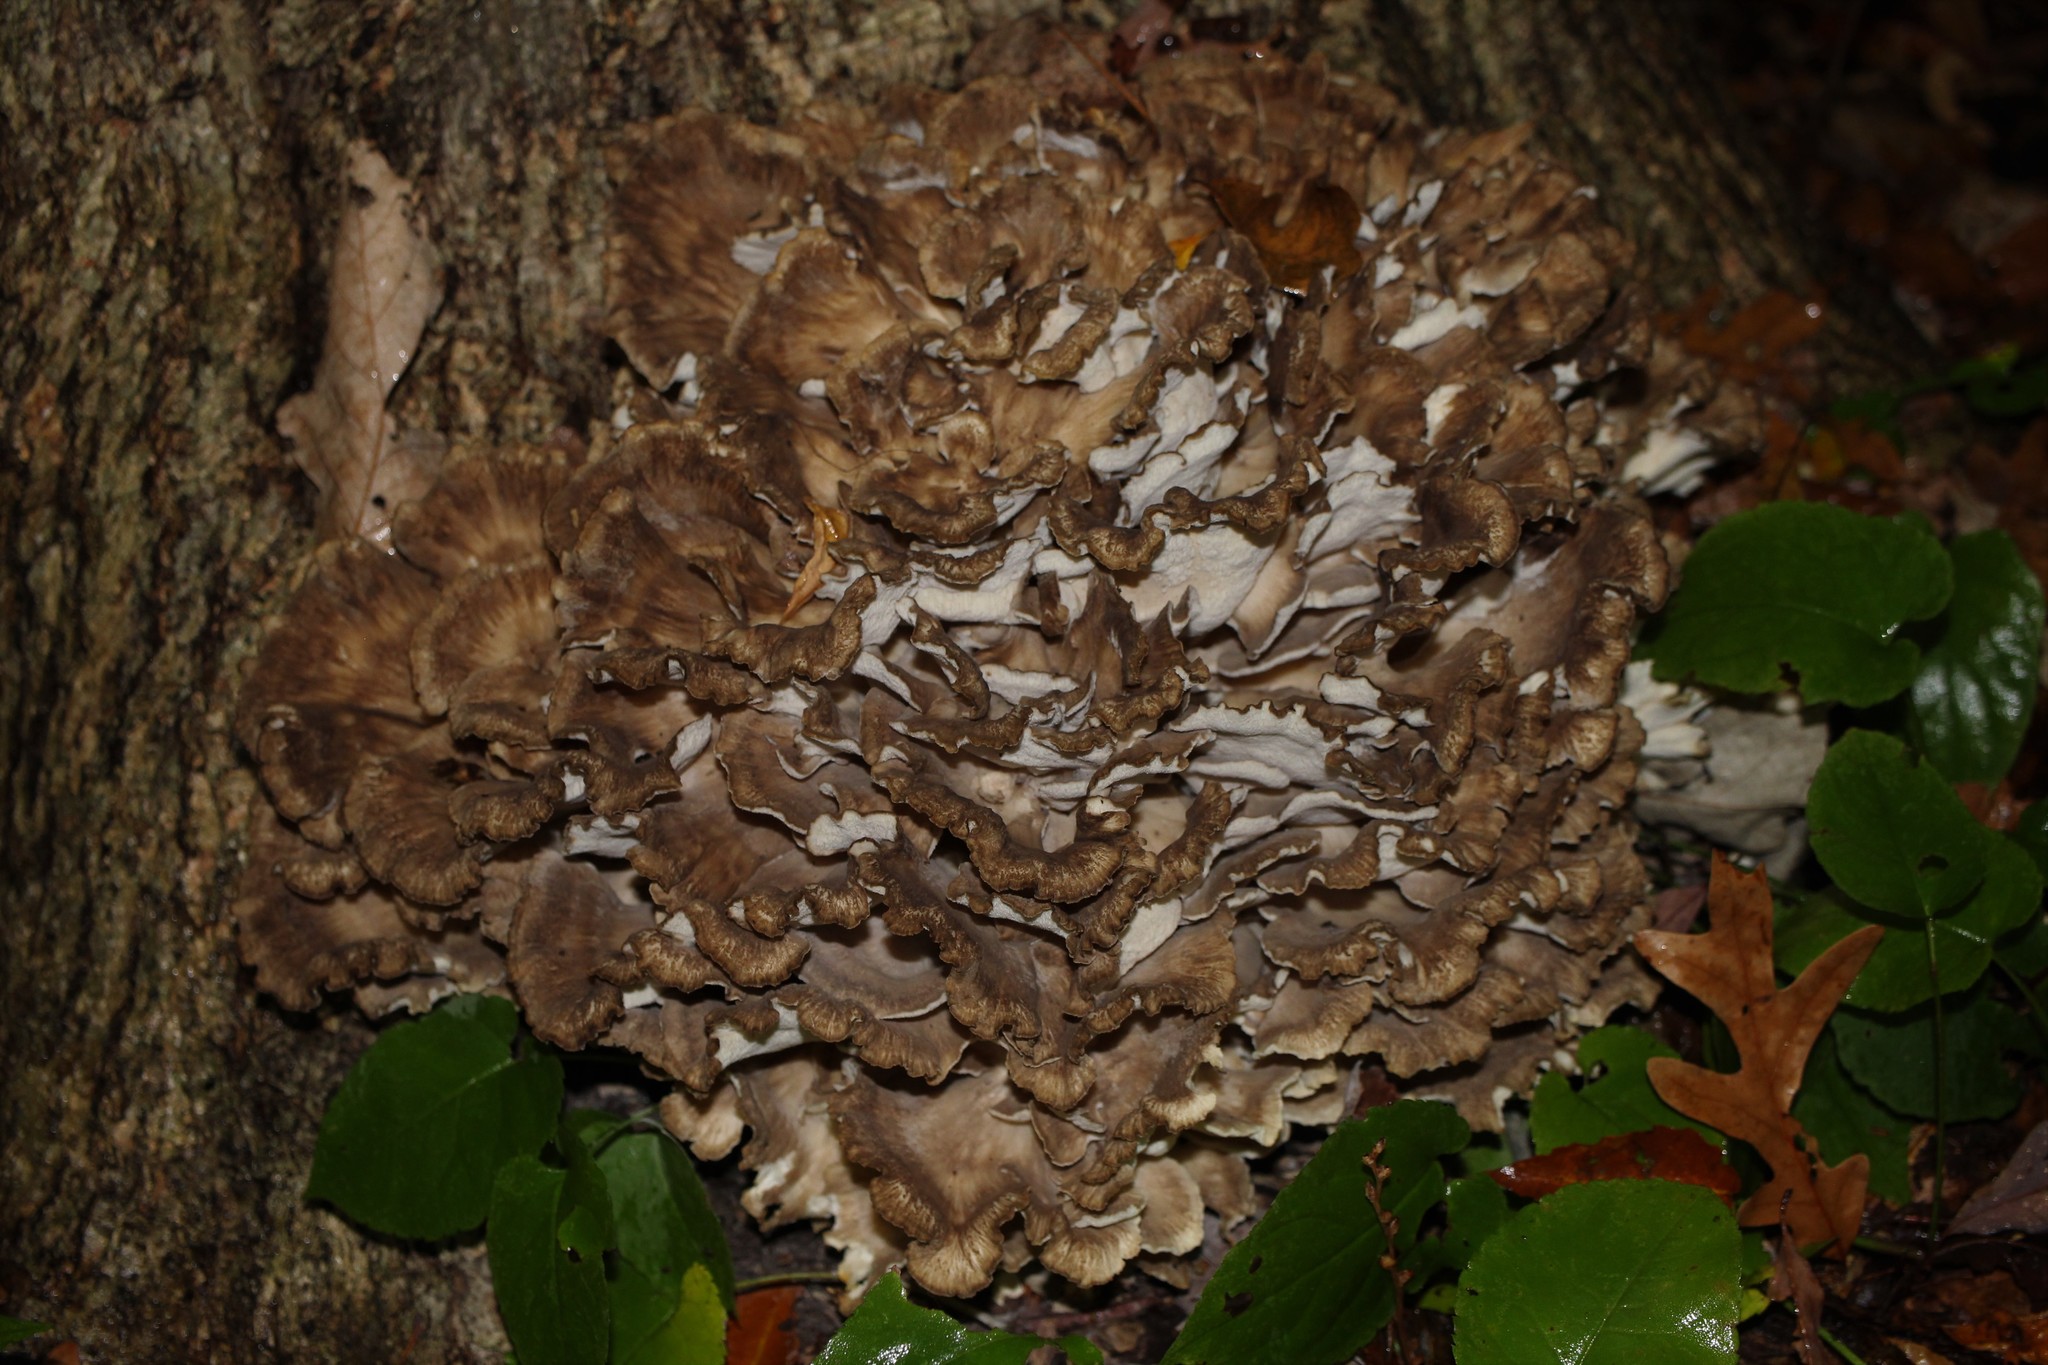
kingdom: Fungi
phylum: Basidiomycota
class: Agaricomycetes
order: Polyporales
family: Grifolaceae
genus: Grifola
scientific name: Grifola frondosa
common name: Hen of the woods
